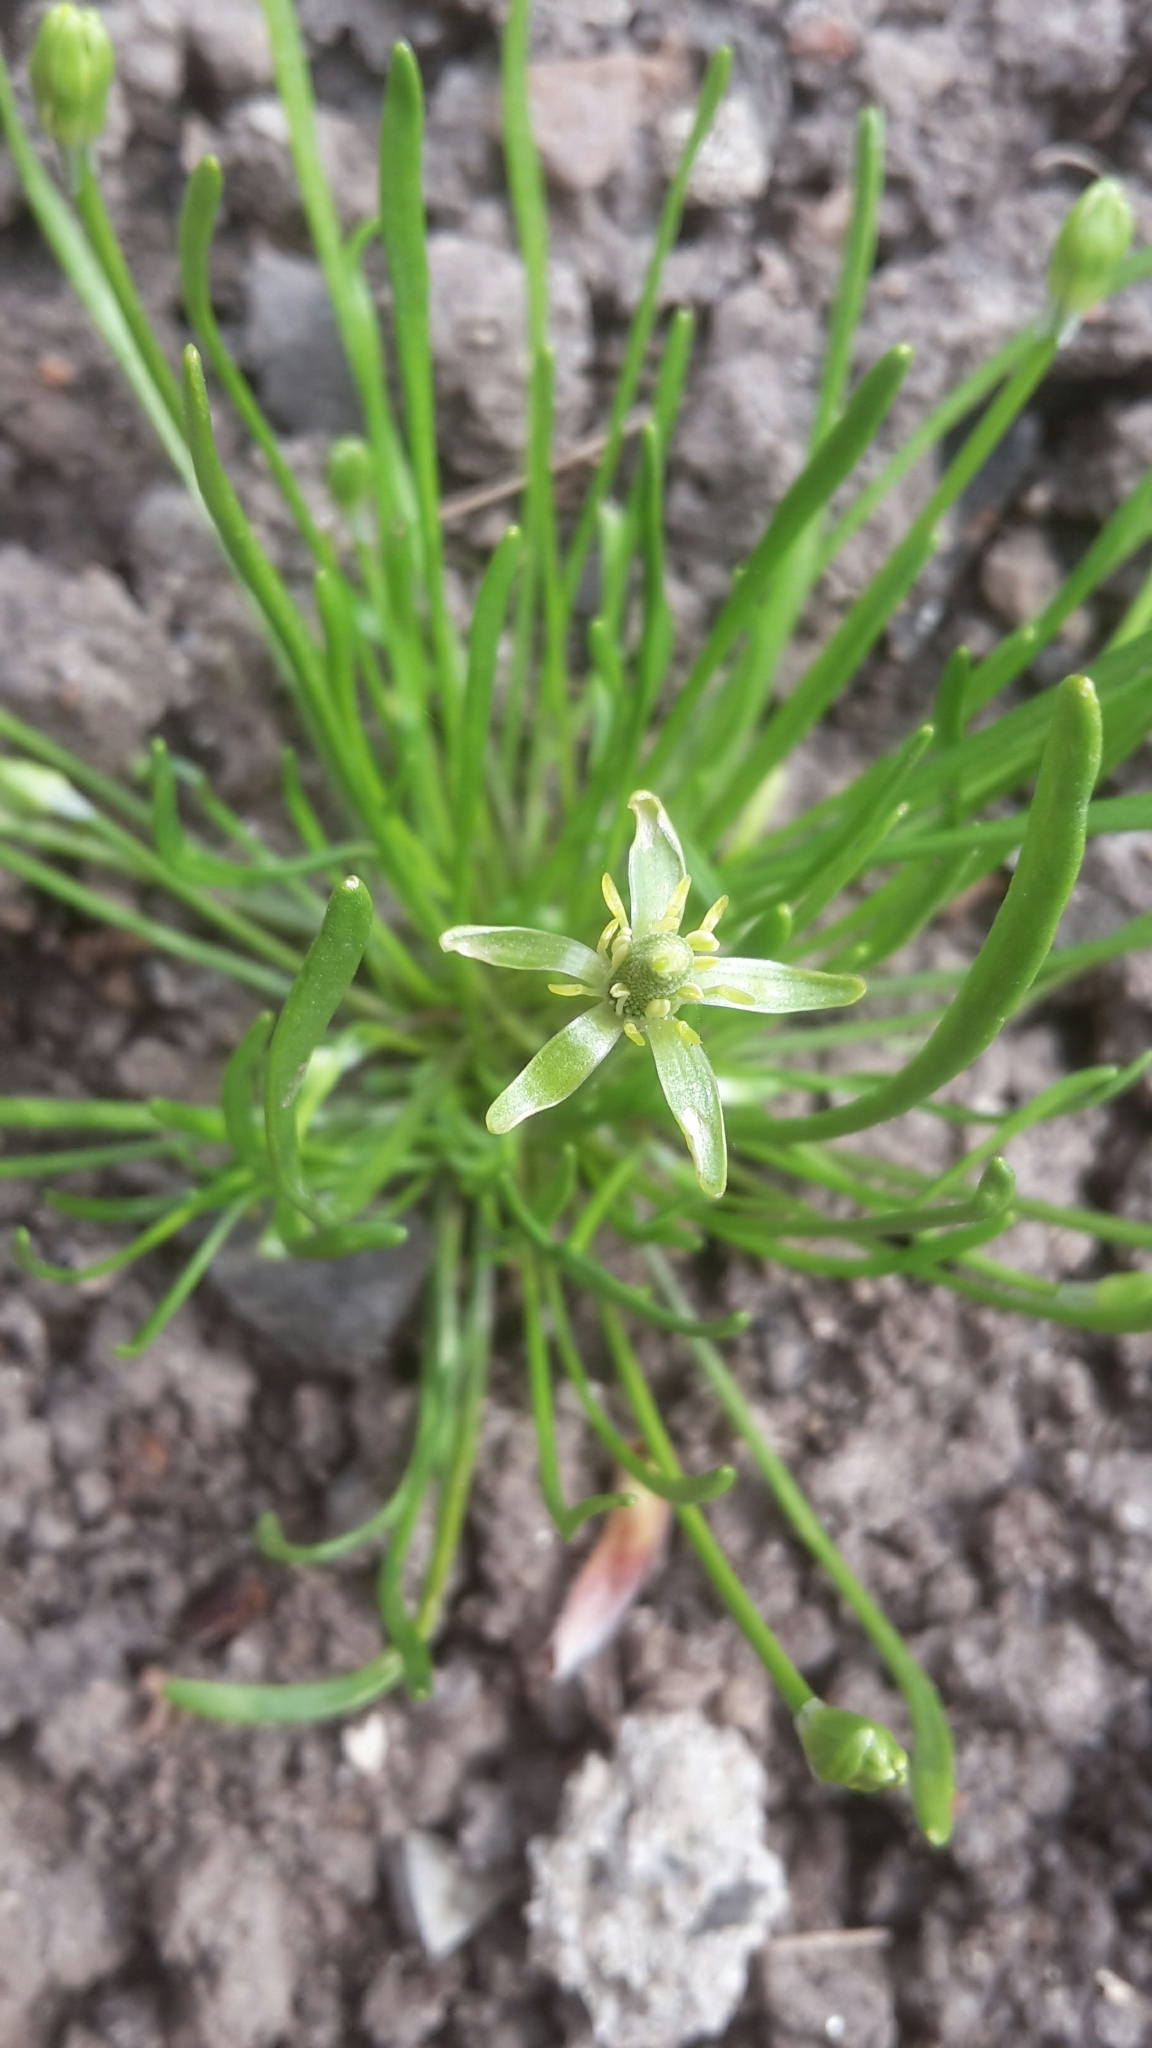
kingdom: Plantae
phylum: Tracheophyta
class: Magnoliopsida
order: Ranunculales
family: Ranunculaceae
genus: Myosurus
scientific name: Myosurus minimus
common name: Mousetail
